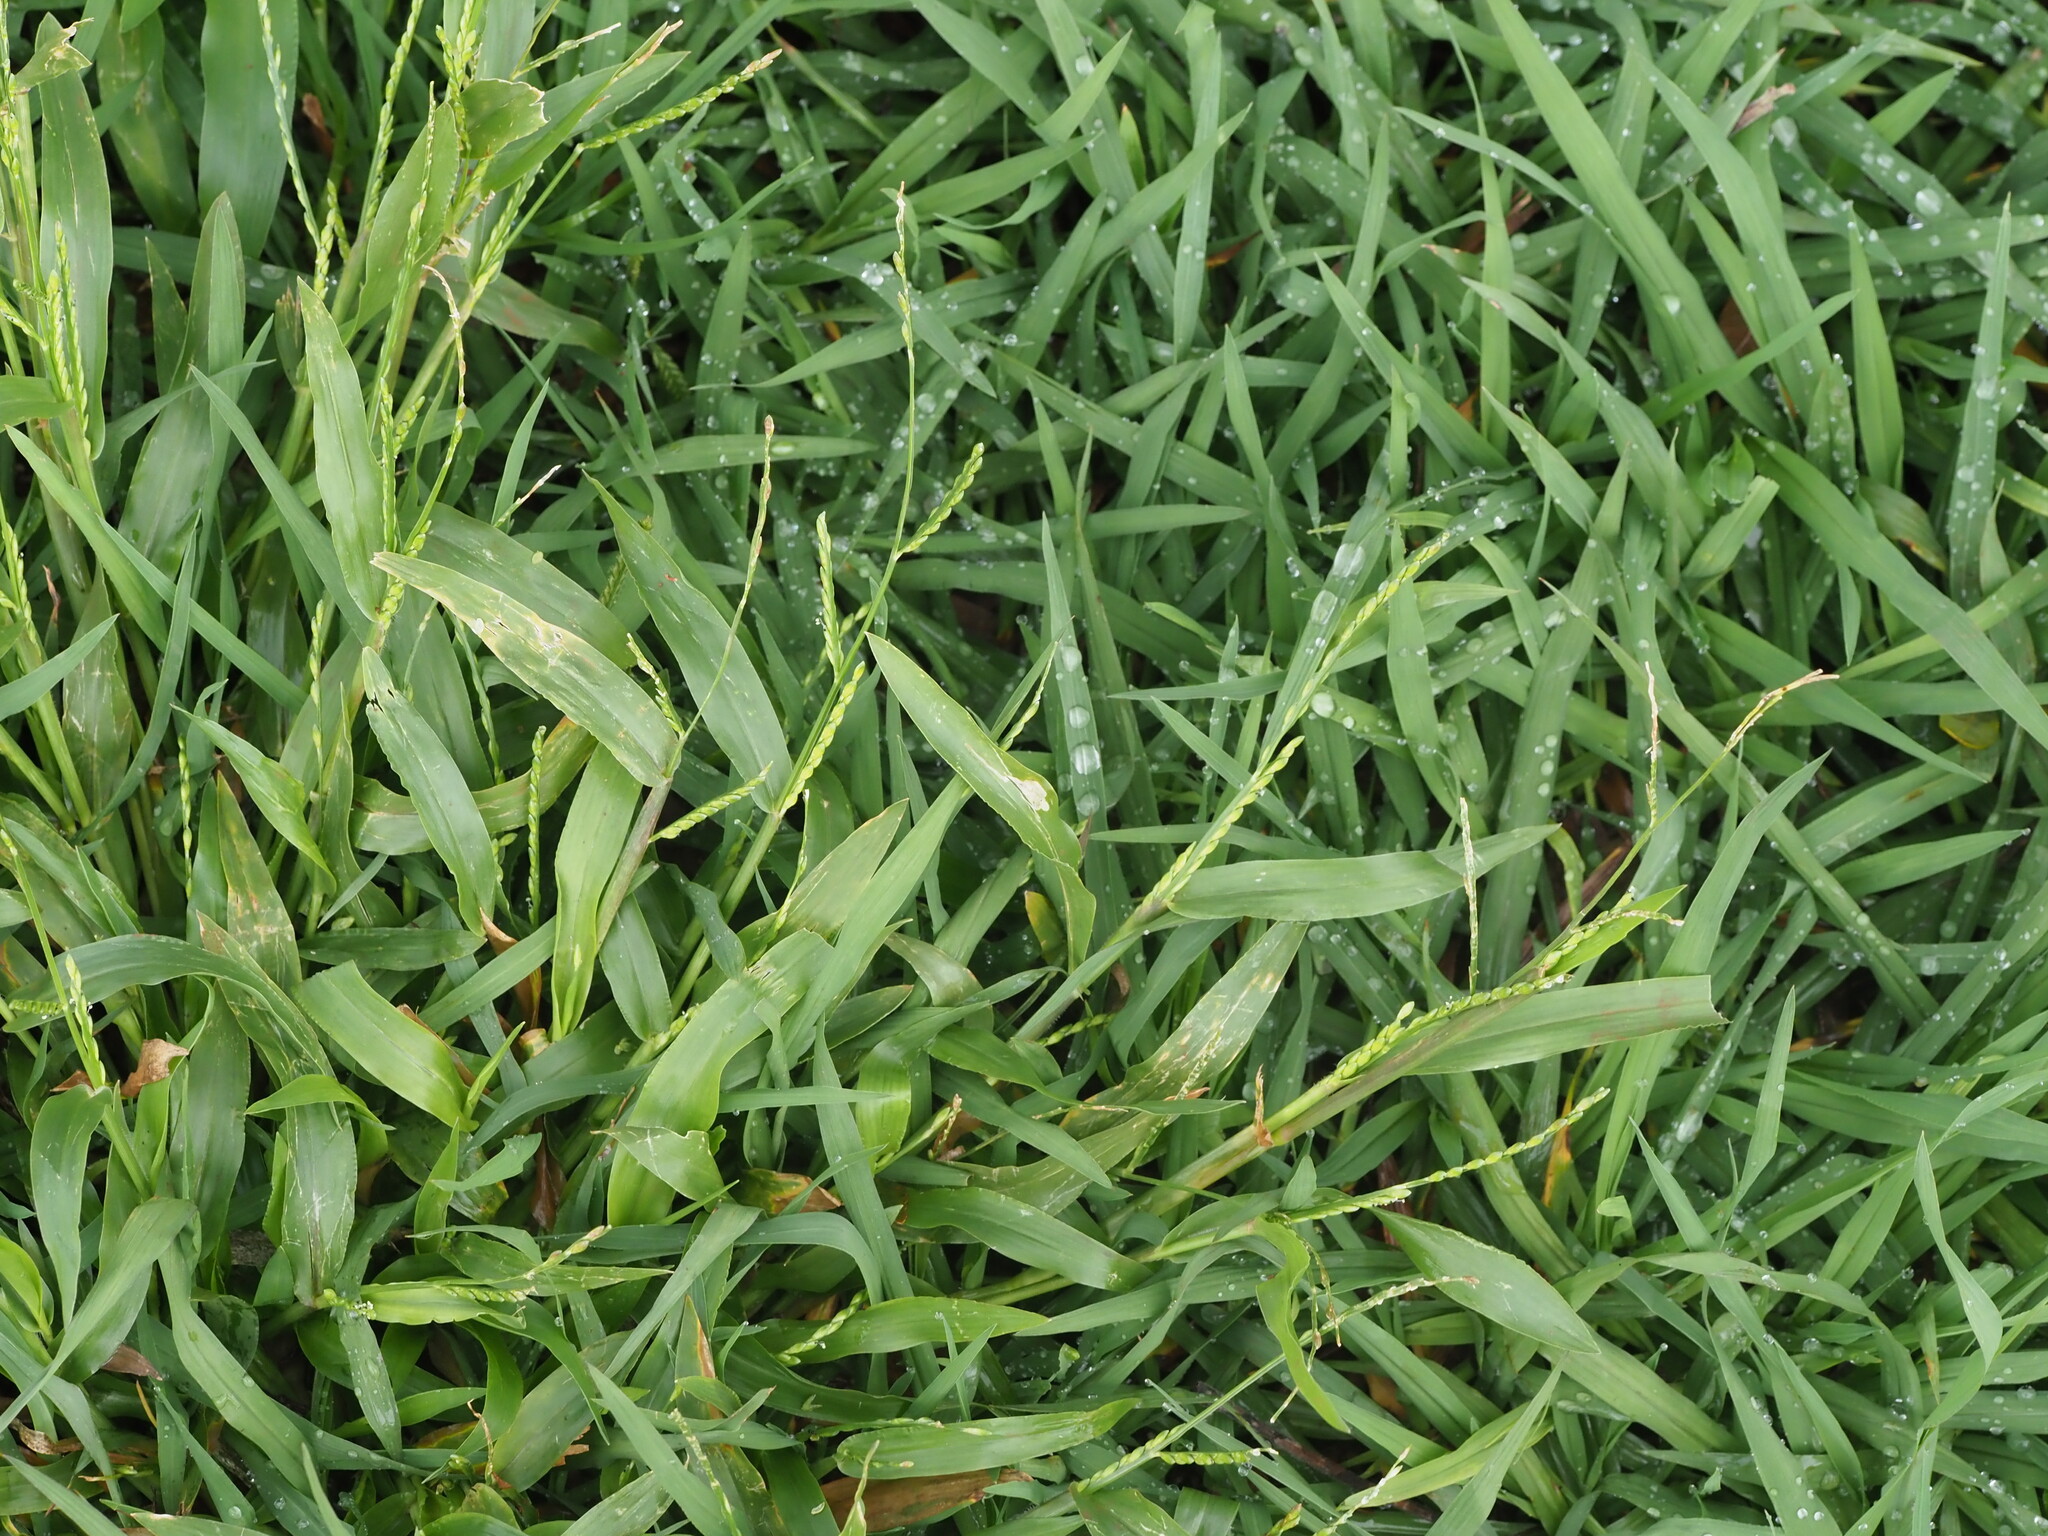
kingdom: Plantae
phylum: Tracheophyta
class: Liliopsida
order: Poales
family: Poaceae
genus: Urochloa
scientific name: Urochloa plantaginea
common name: Plantain signalgrass
